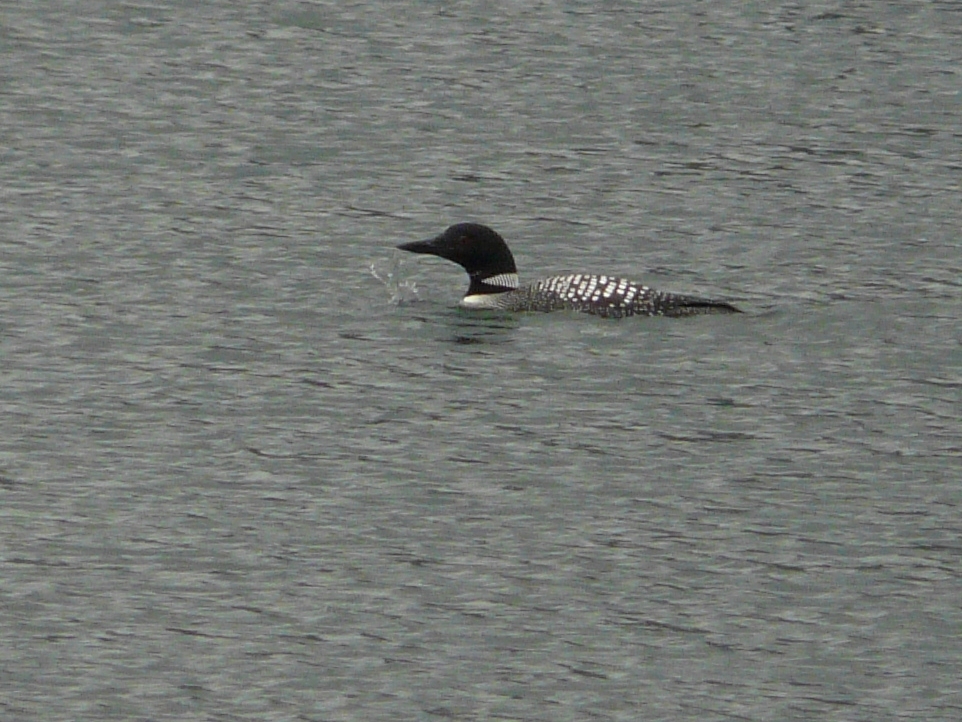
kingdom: Animalia
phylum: Chordata
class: Aves
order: Gaviiformes
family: Gaviidae
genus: Gavia
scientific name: Gavia immer
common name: Common loon
